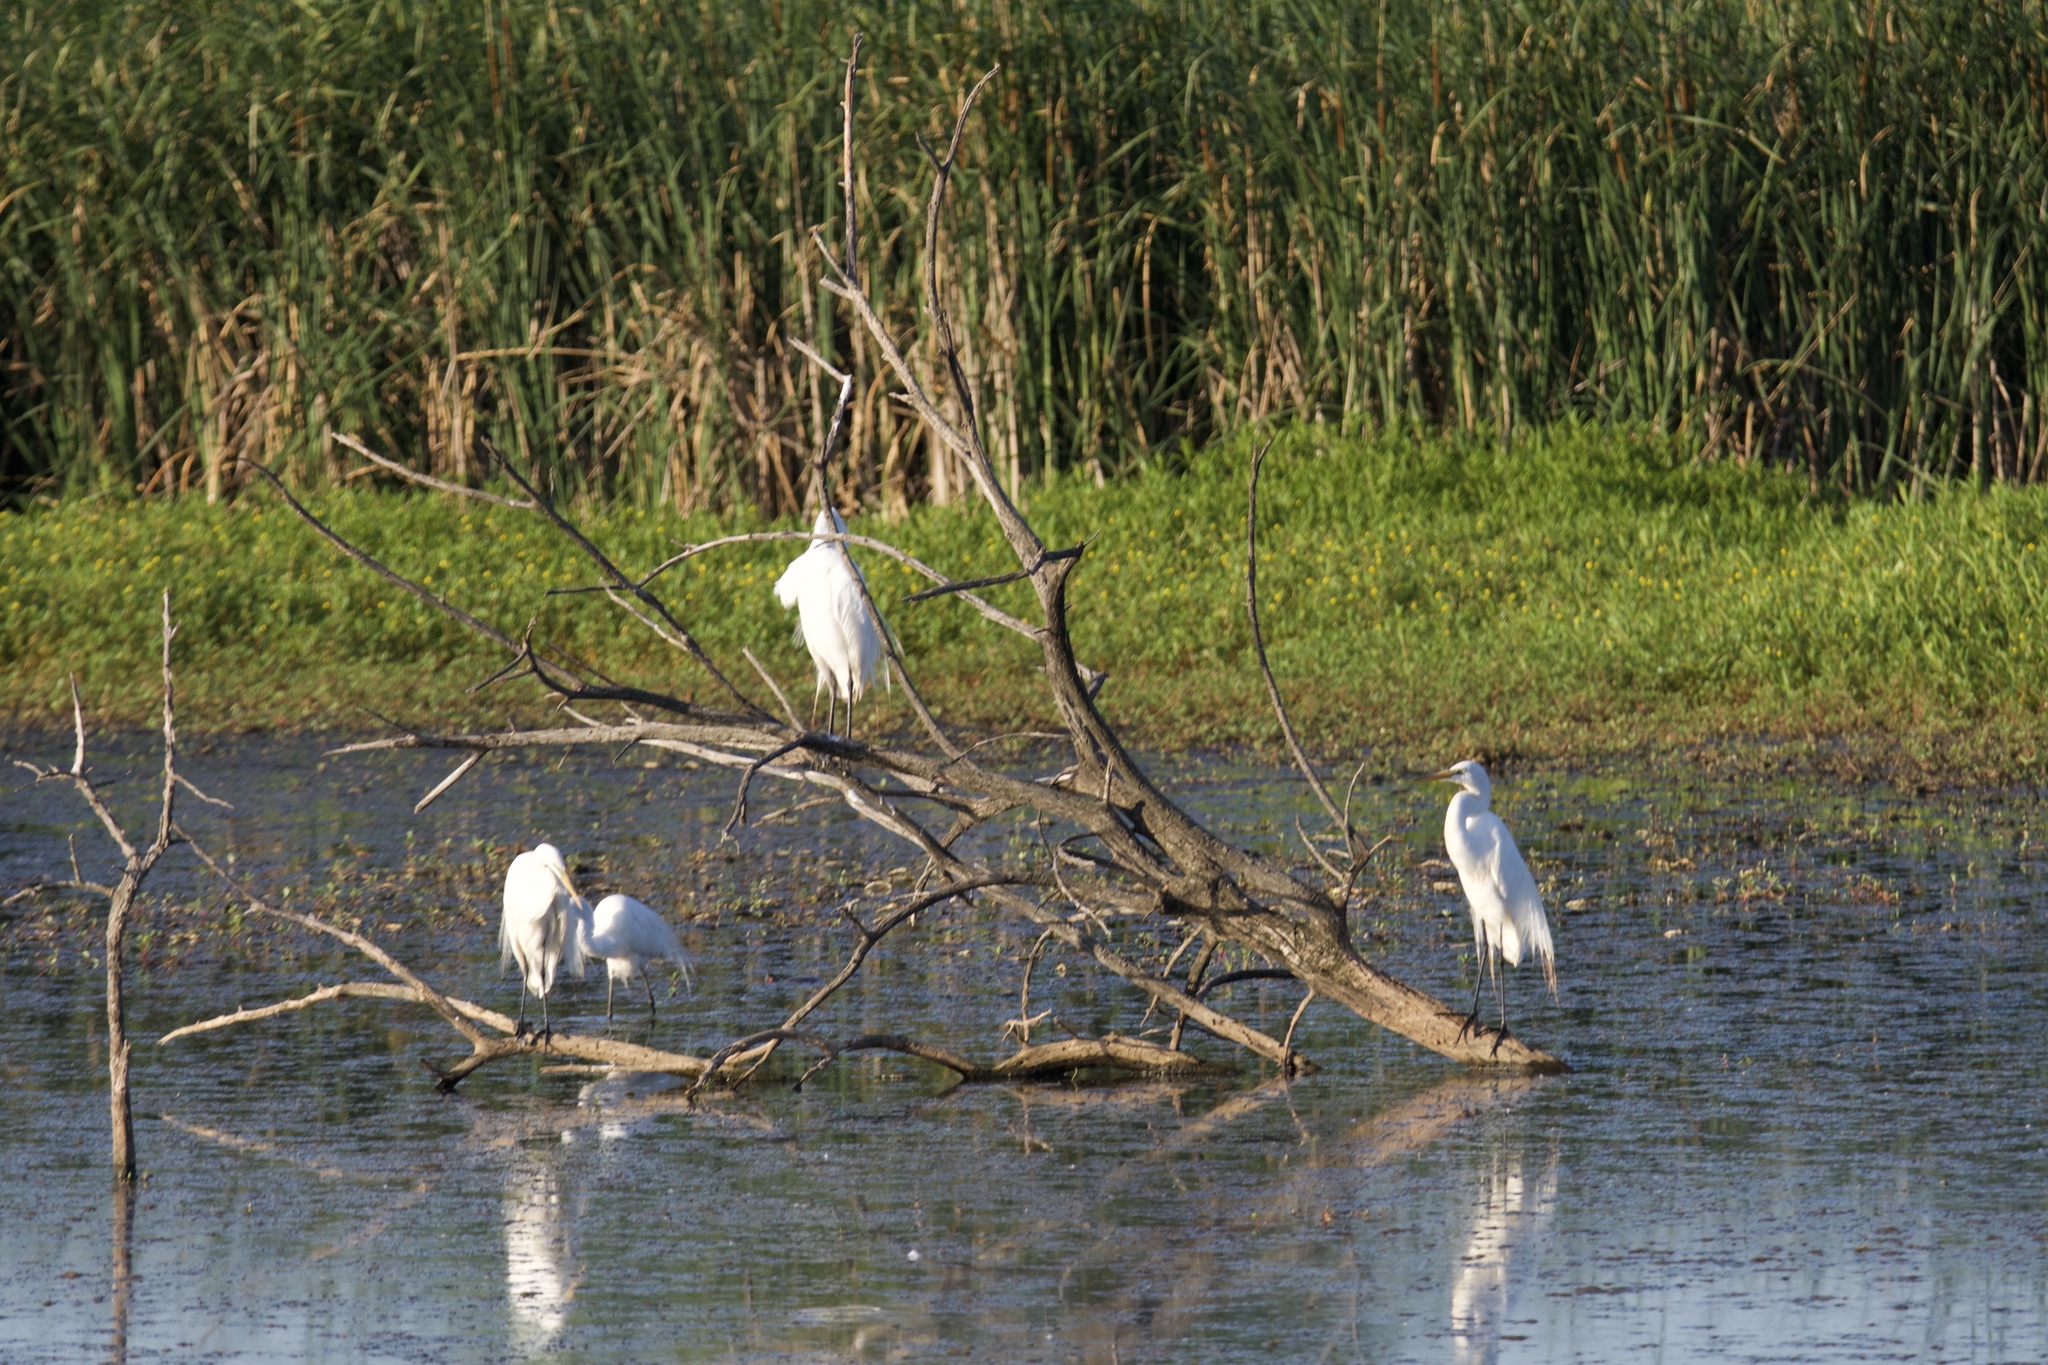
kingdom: Animalia
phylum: Chordata
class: Aves
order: Pelecaniformes
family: Ardeidae
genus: Ardea
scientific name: Ardea alba
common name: Great egret
